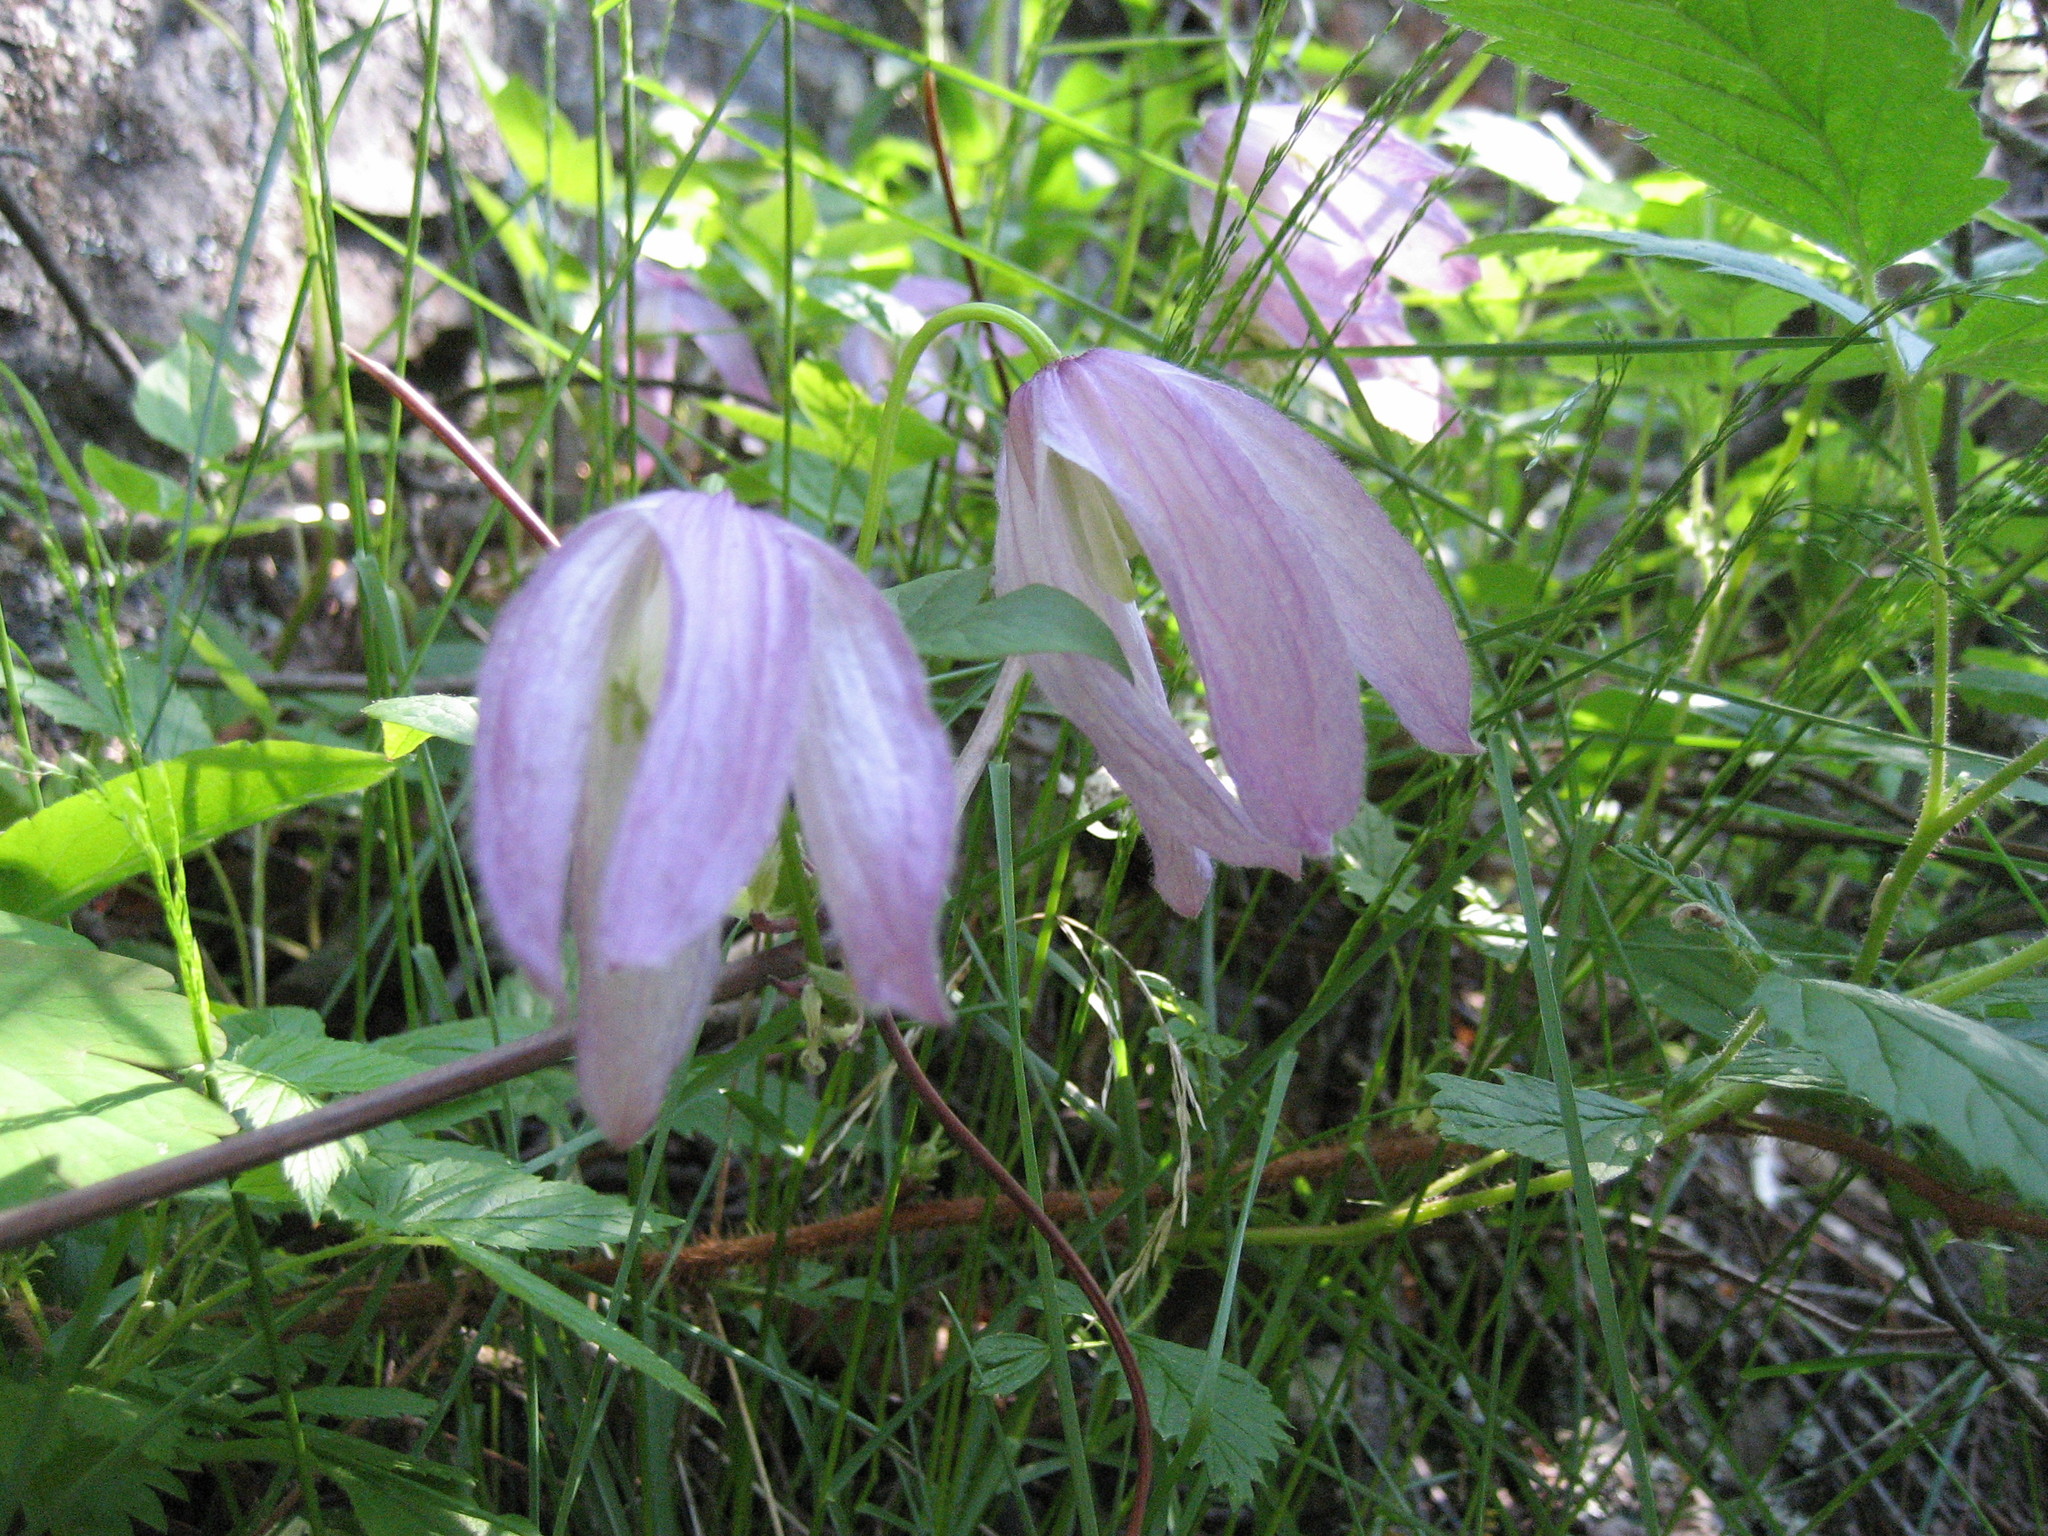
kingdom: Plantae
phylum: Tracheophyta
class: Magnoliopsida
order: Ranunculales
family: Ranunculaceae
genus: Clematis
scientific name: Clematis occidentalis
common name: Purple clematis
